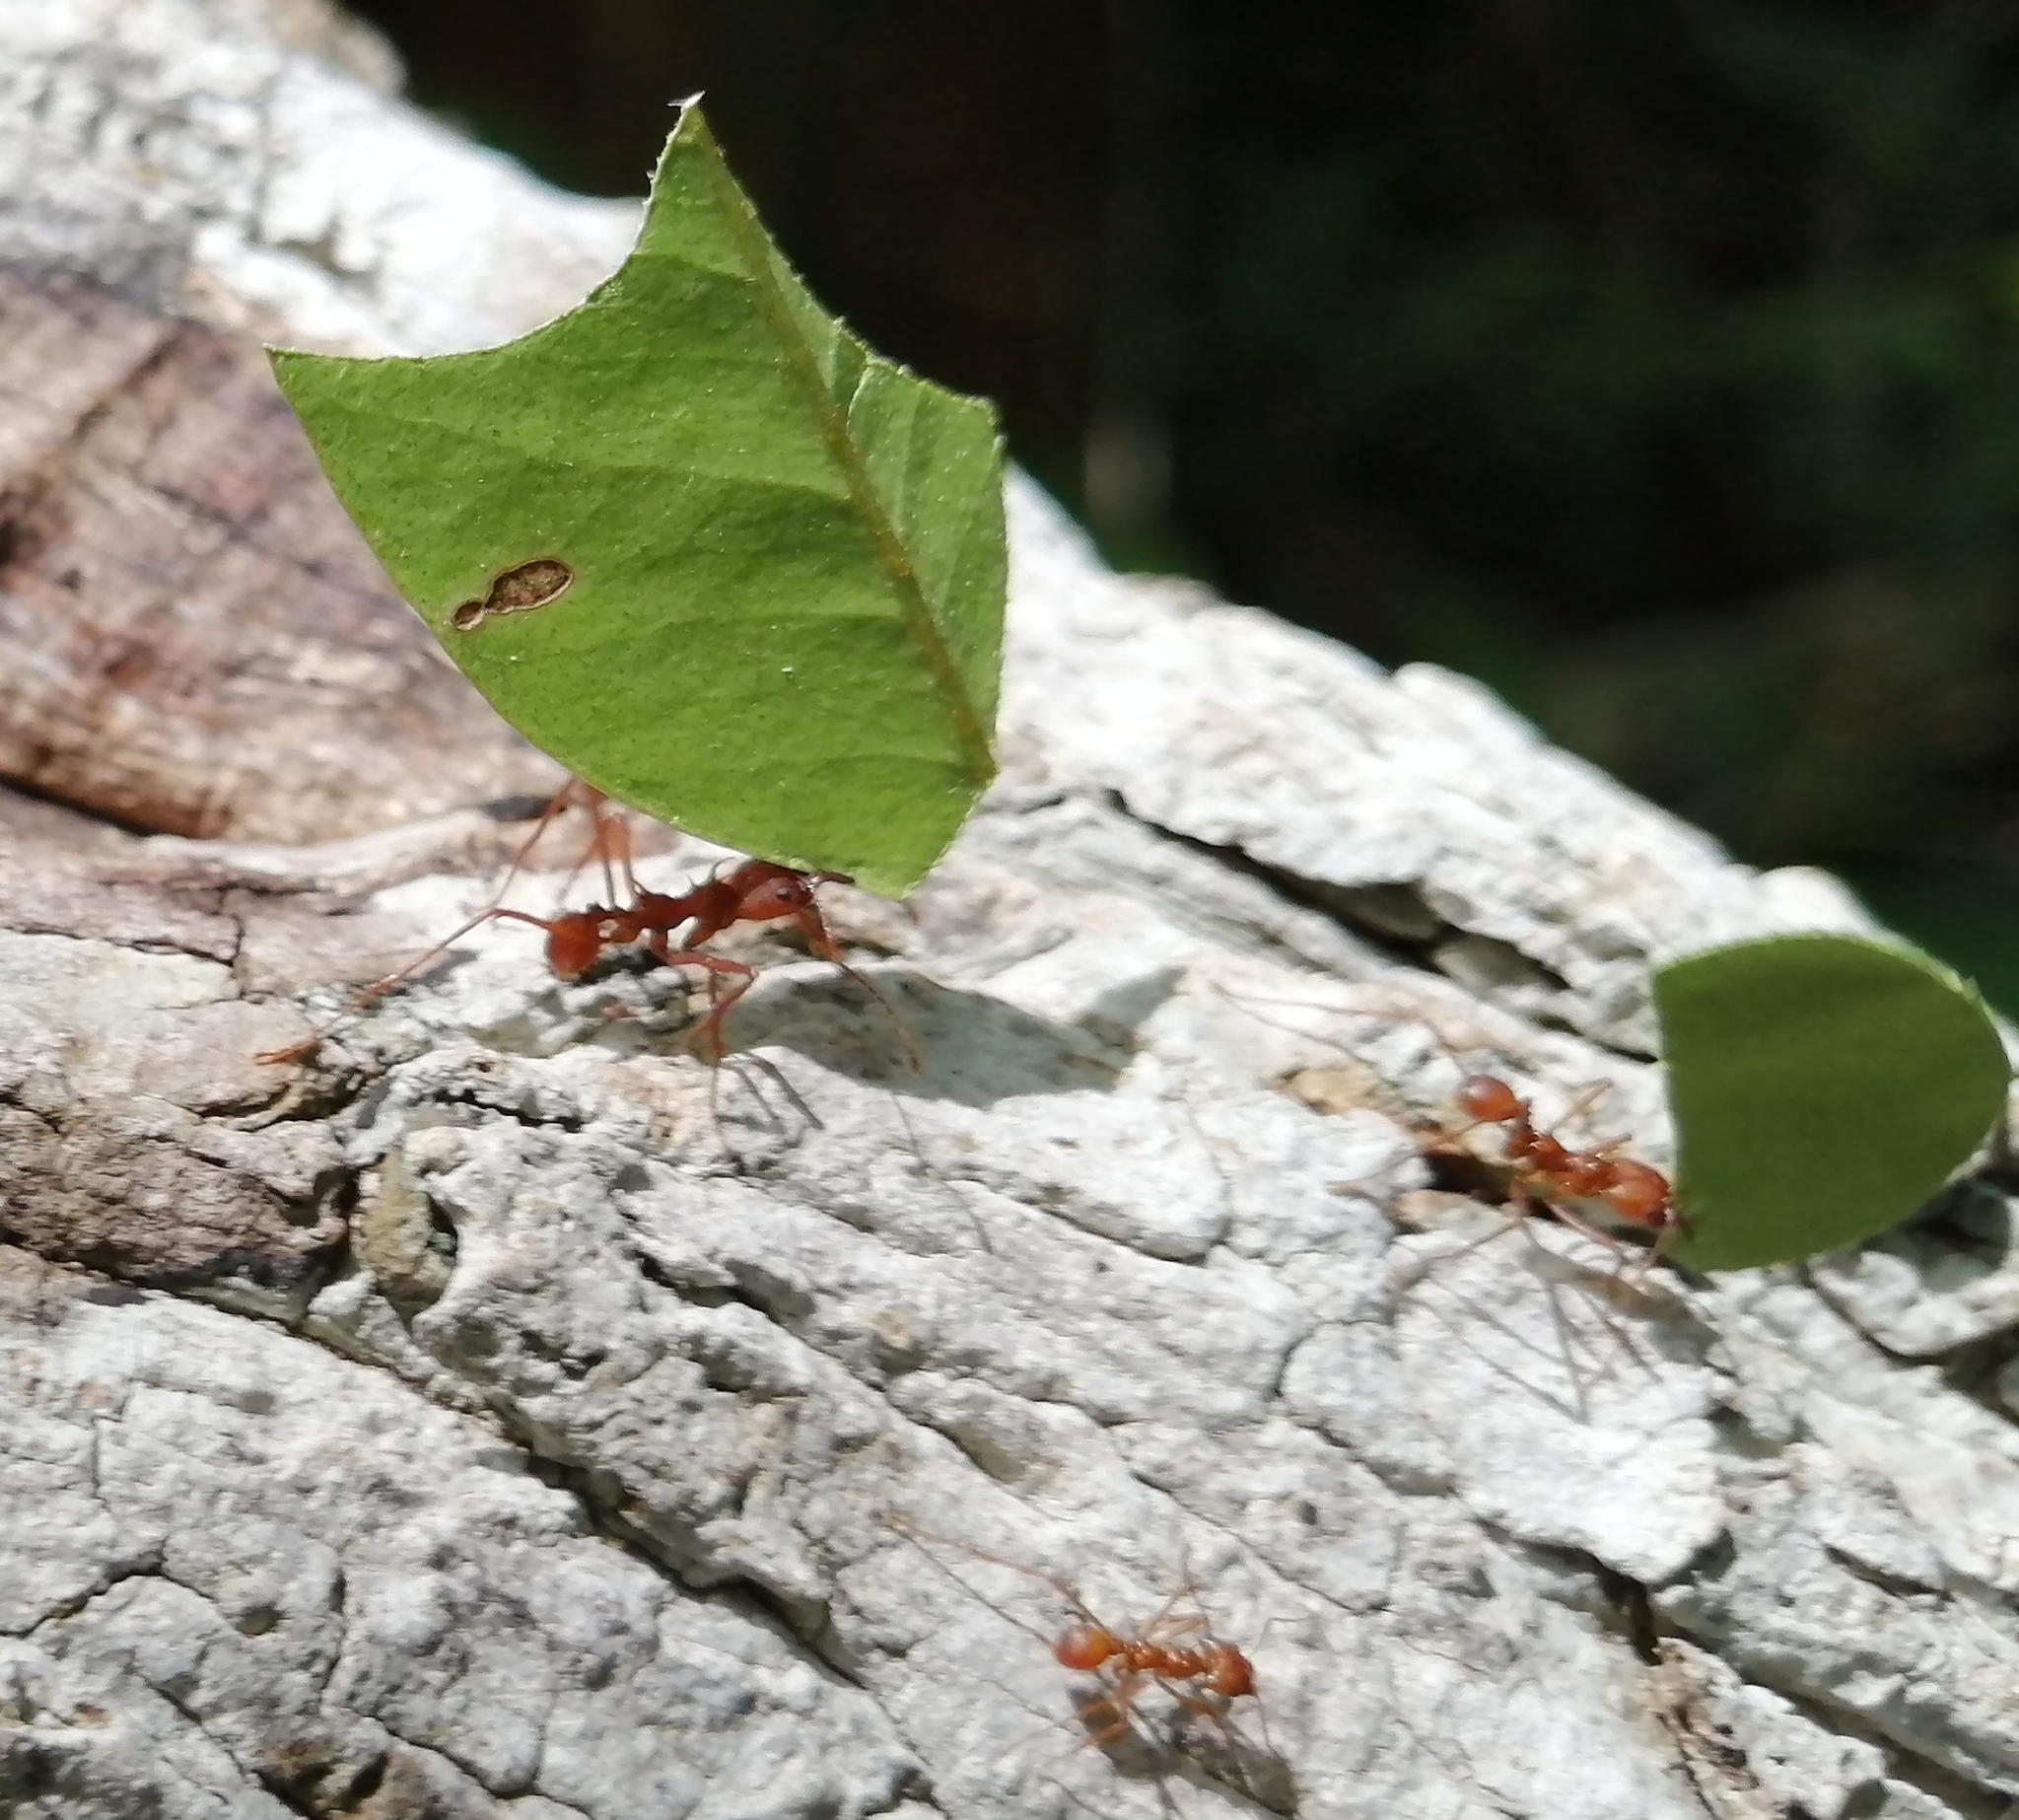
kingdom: Animalia
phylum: Arthropoda
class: Insecta
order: Hymenoptera
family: Formicidae
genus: Atta
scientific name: Atta cephalotes
